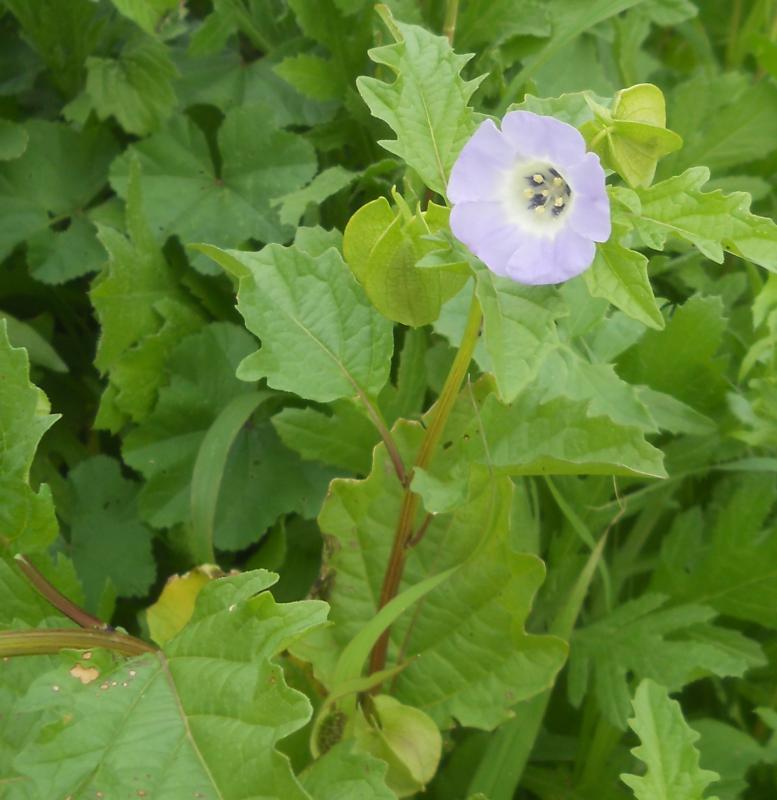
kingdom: Plantae
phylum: Tracheophyta
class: Magnoliopsida
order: Solanales
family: Solanaceae
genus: Nicandra
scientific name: Nicandra physalodes
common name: Apple-of-peru
